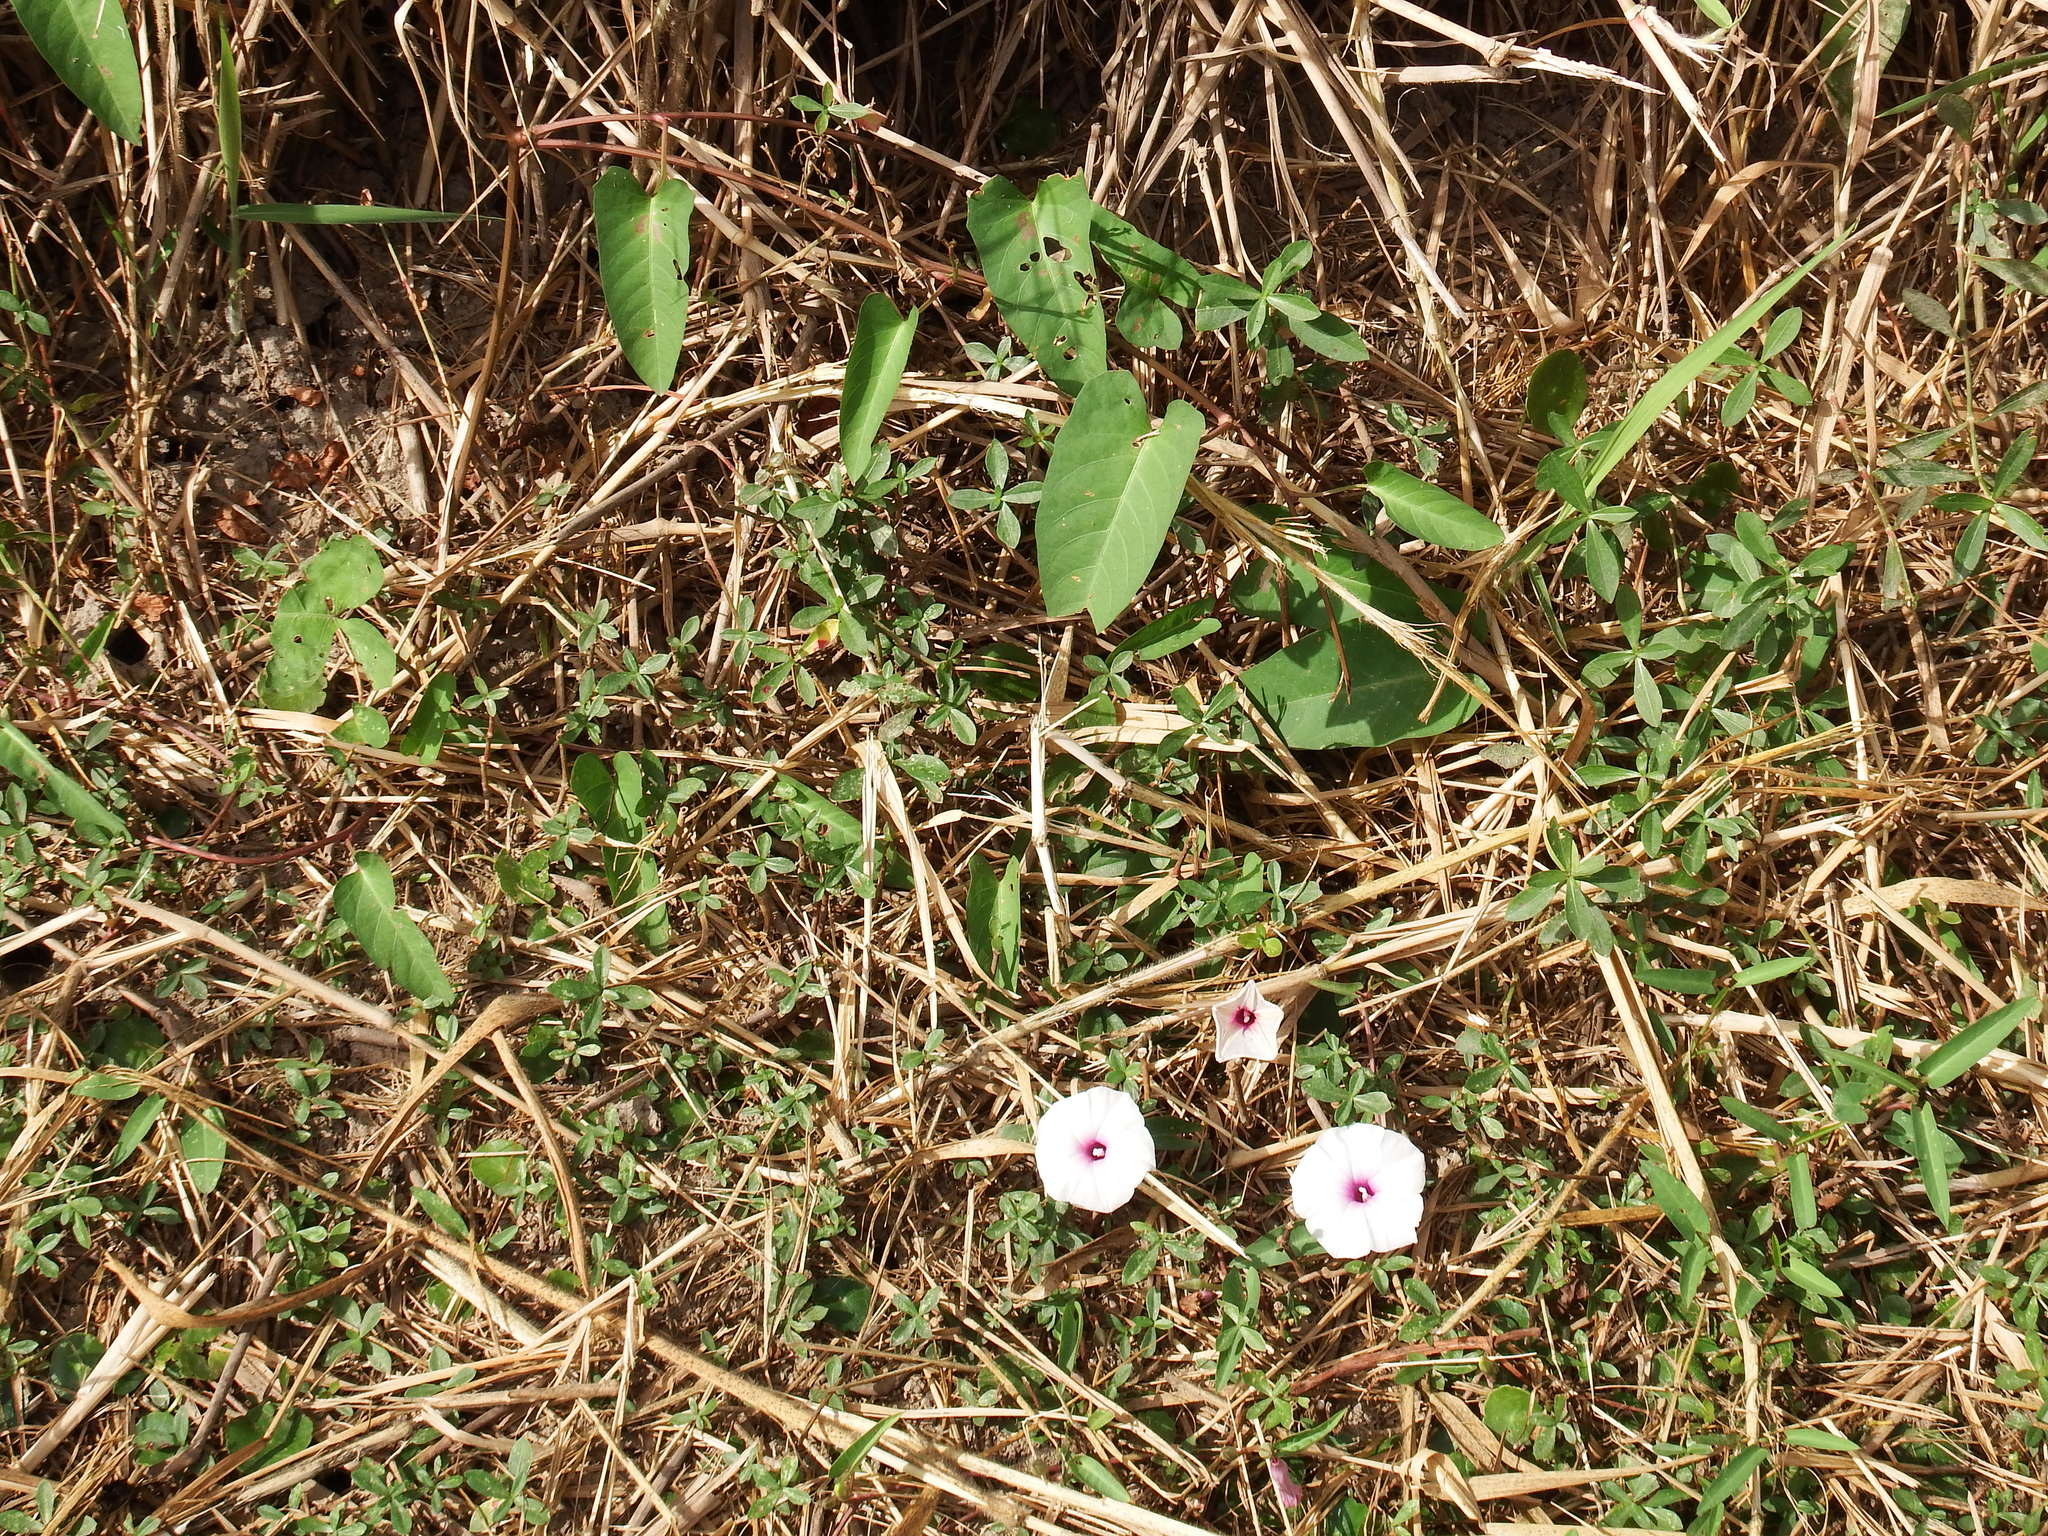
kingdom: Plantae
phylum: Tracheophyta
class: Magnoliopsida
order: Solanales
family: Convolvulaceae
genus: Ipomoea
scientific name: Ipomoea aquatica
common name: Swamp morning-glory
